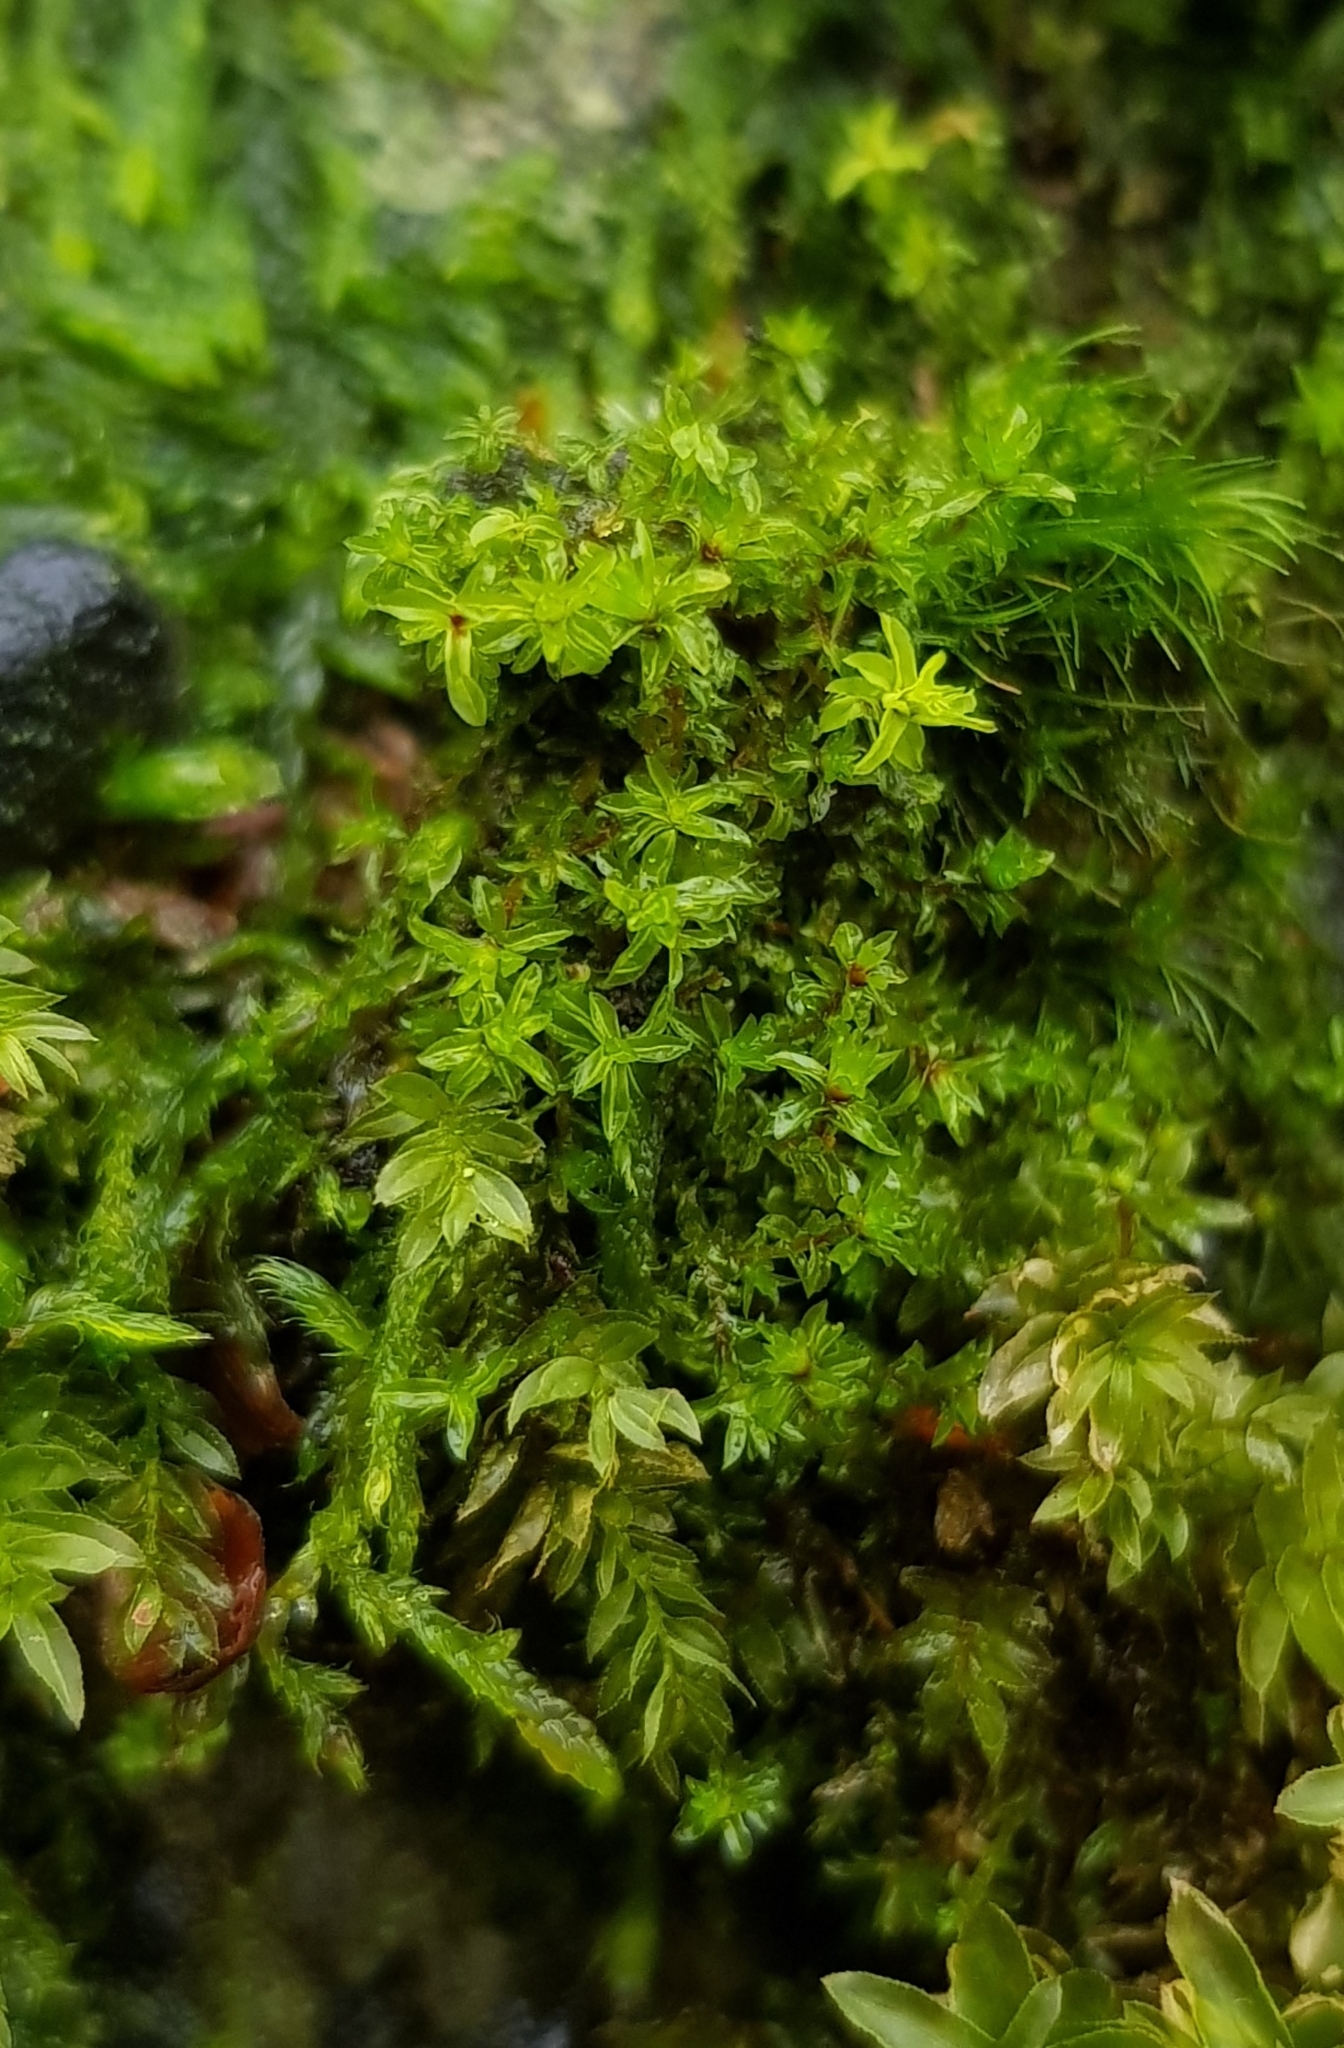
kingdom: Plantae
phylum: Bryophyta
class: Bryopsida
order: Pottiales
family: Pottiaceae
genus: Leptodontium
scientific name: Leptodontium flexifolium
